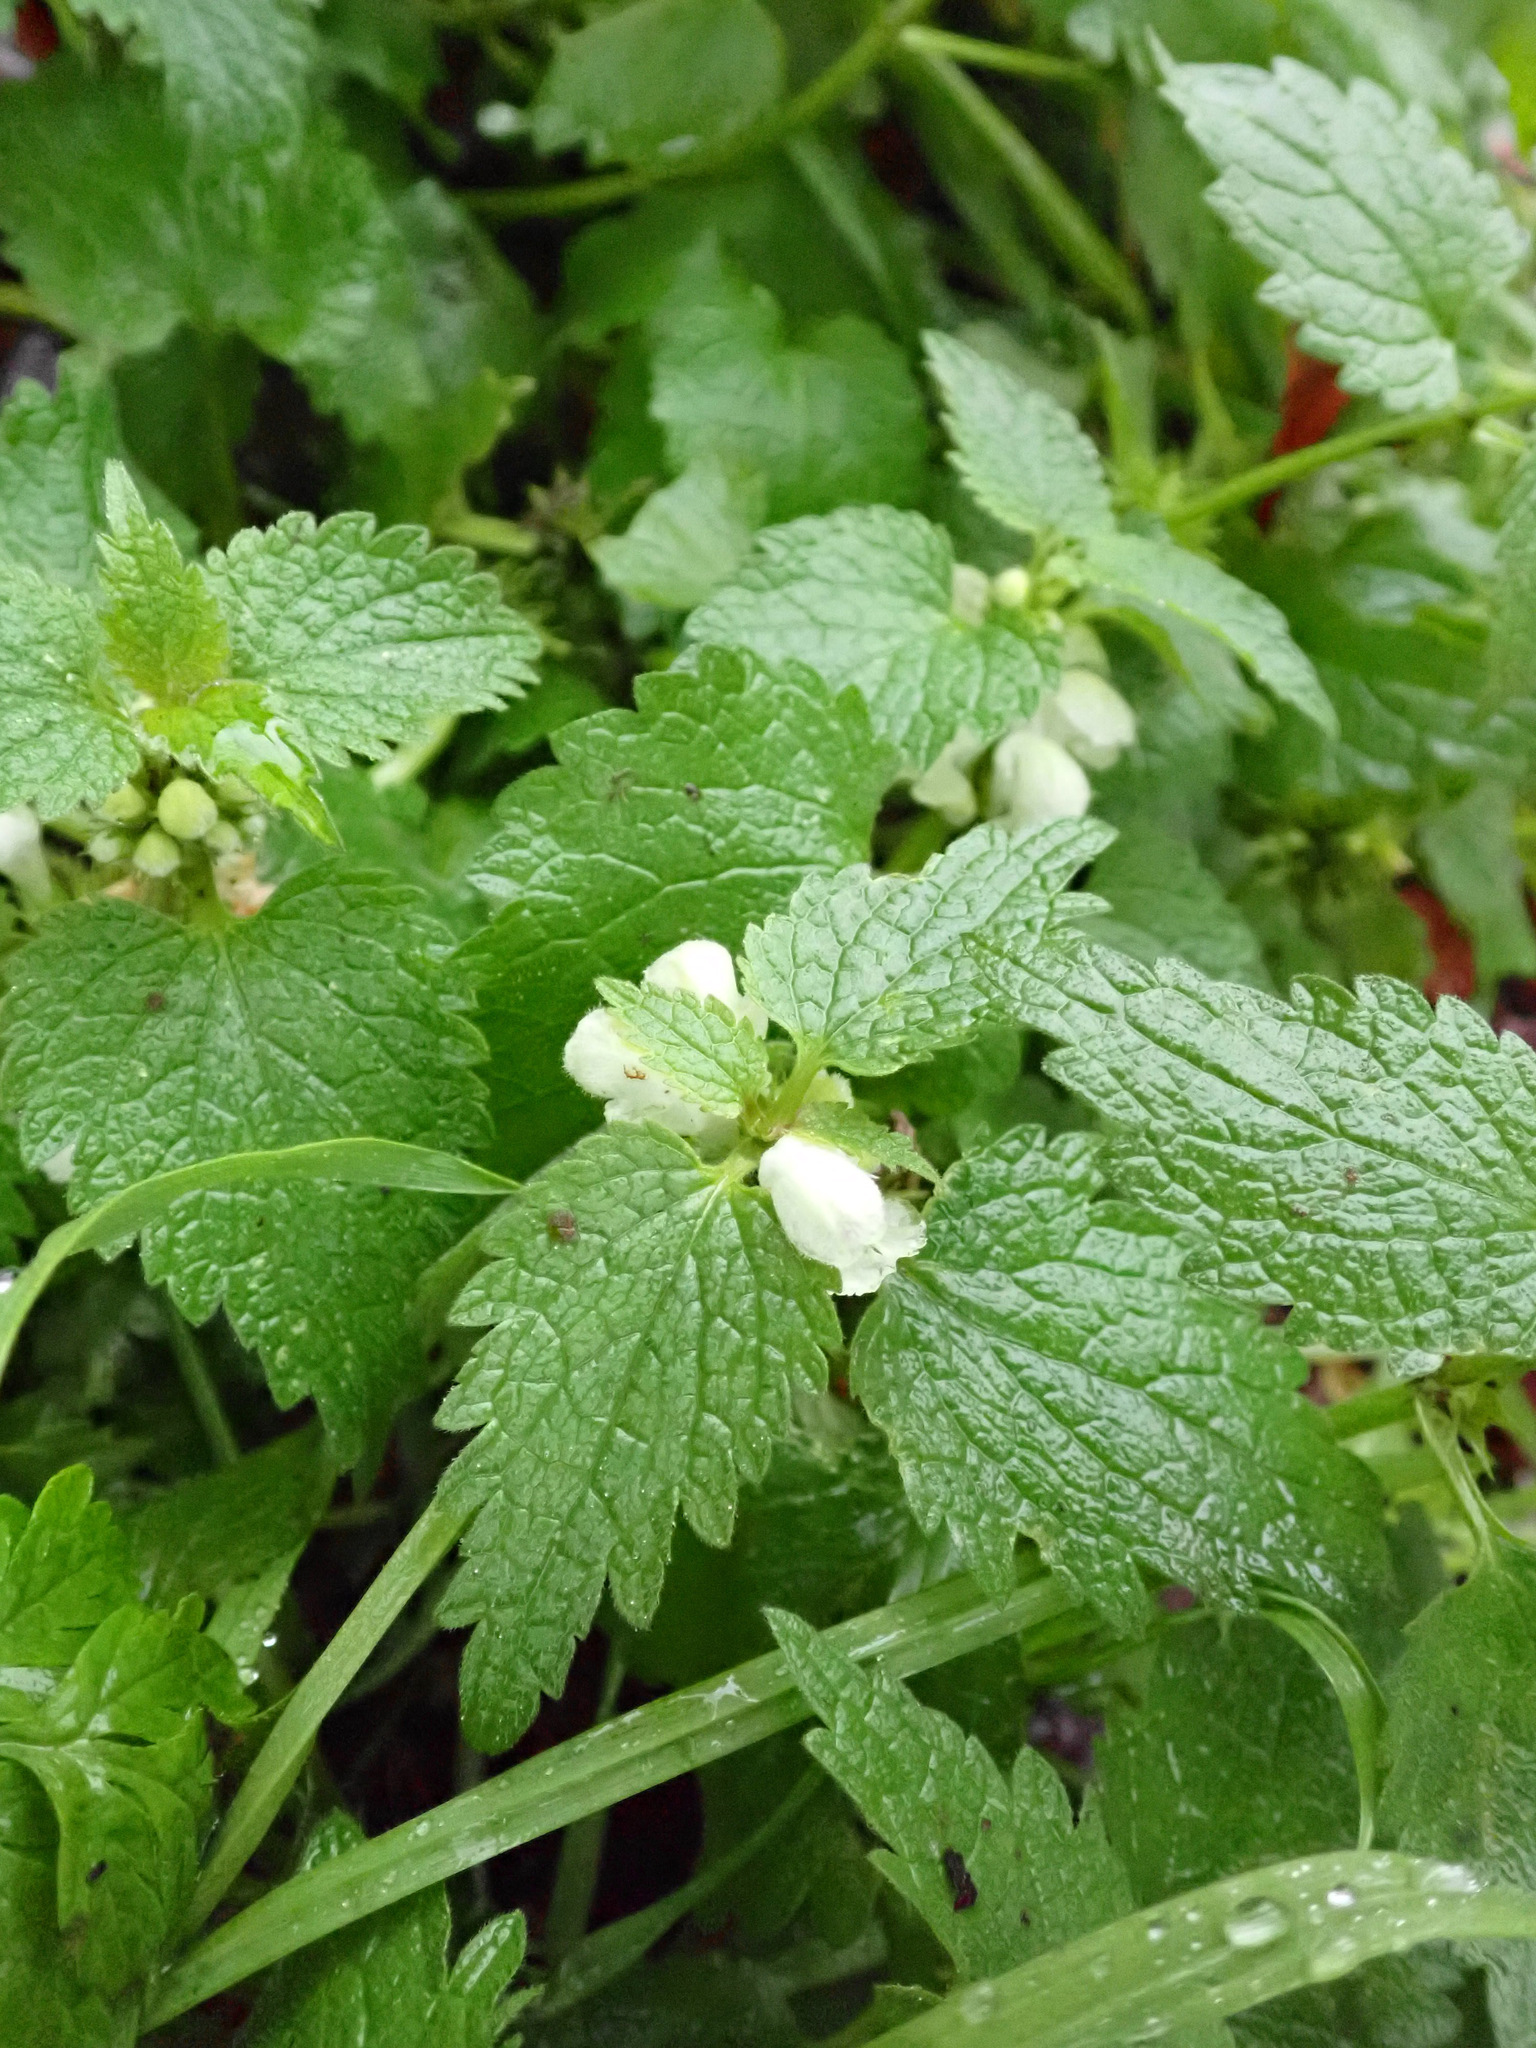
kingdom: Plantae
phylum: Tracheophyta
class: Magnoliopsida
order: Lamiales
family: Lamiaceae
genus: Lamium
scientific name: Lamium album
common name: White dead-nettle
